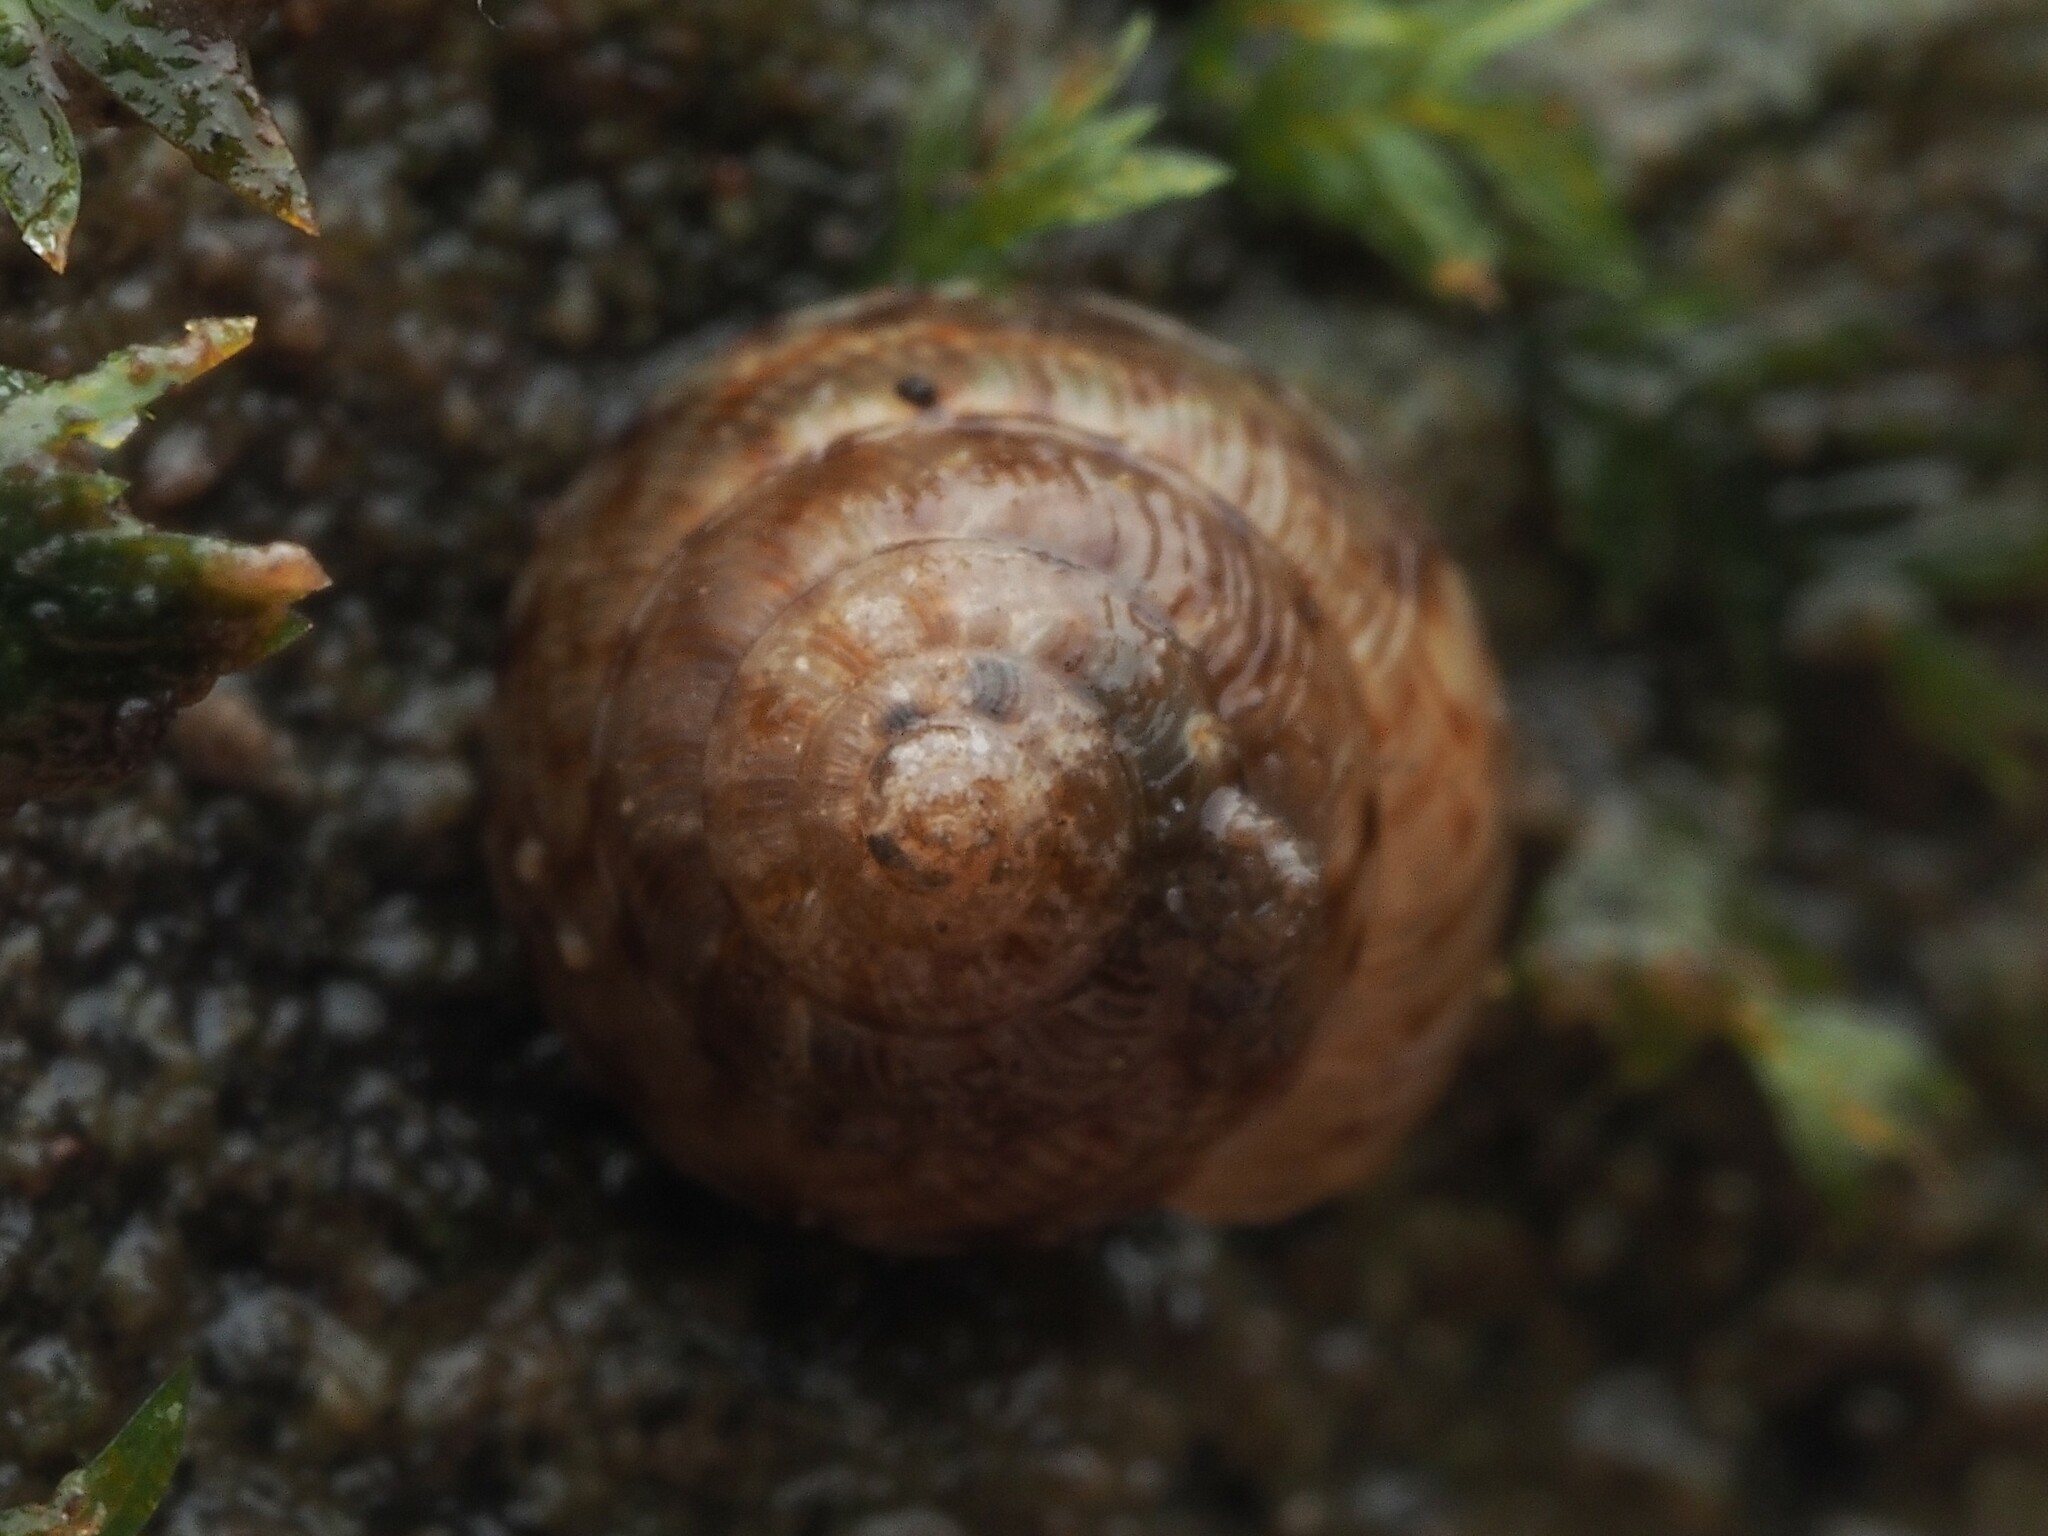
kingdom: Animalia
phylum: Mollusca
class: Gastropoda
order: Stylommatophora
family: Punctidae
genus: Laoma
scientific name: Laoma ordishi
